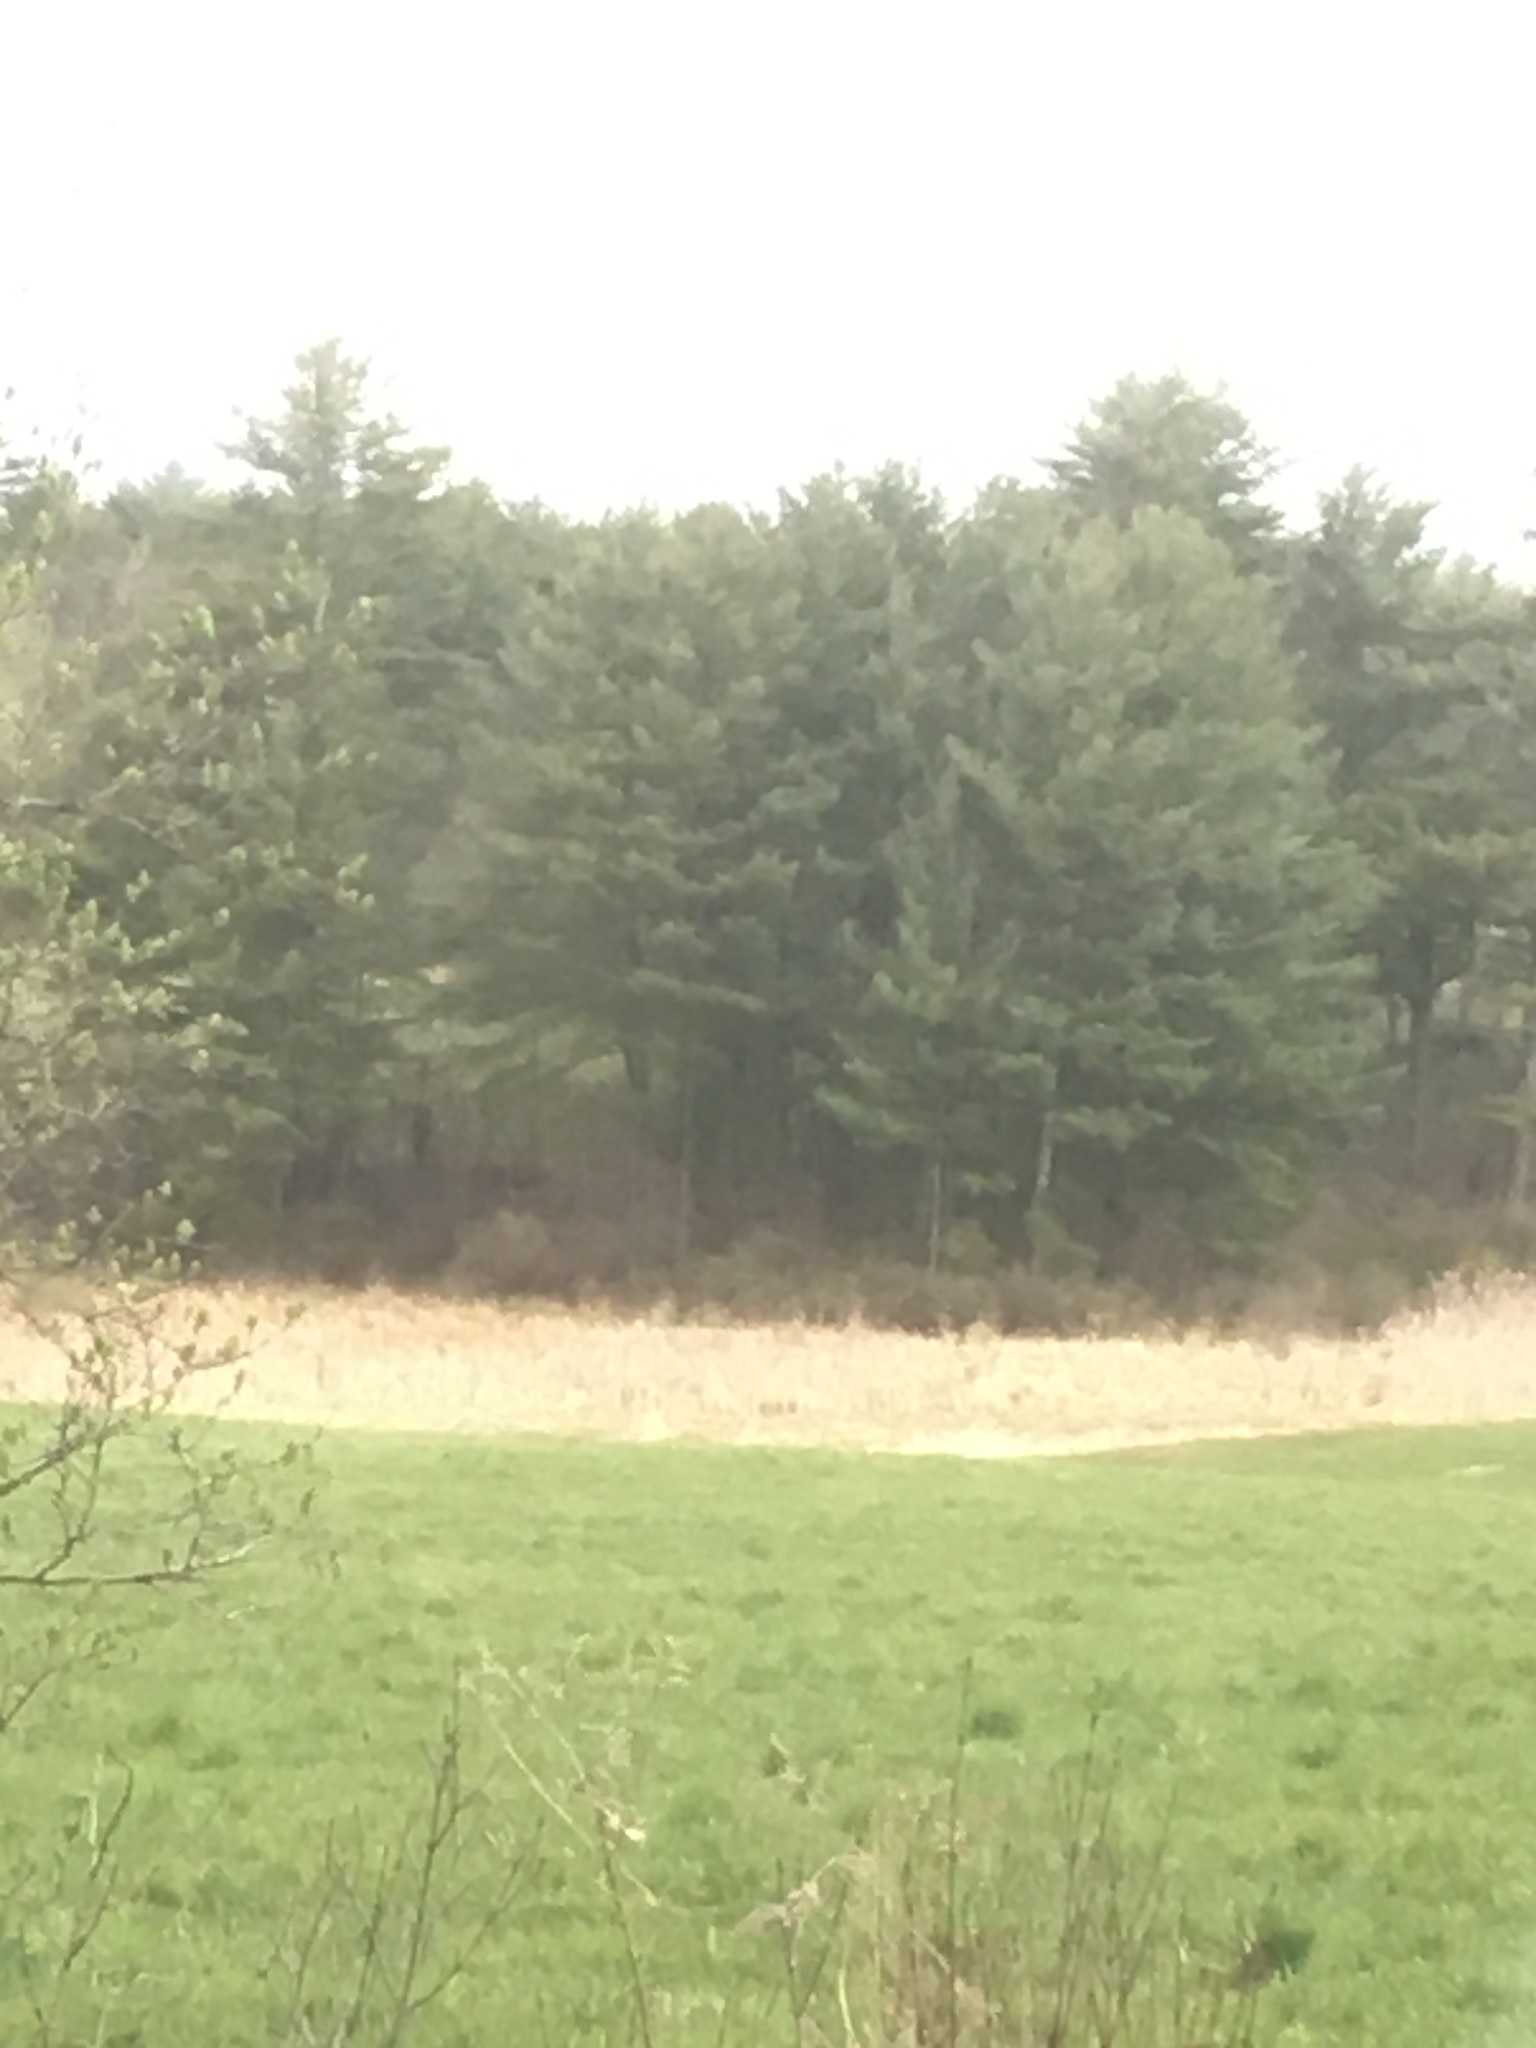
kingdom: Plantae
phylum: Tracheophyta
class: Pinopsida
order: Pinales
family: Pinaceae
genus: Pinus
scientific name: Pinus strobus
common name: Weymouth pine
